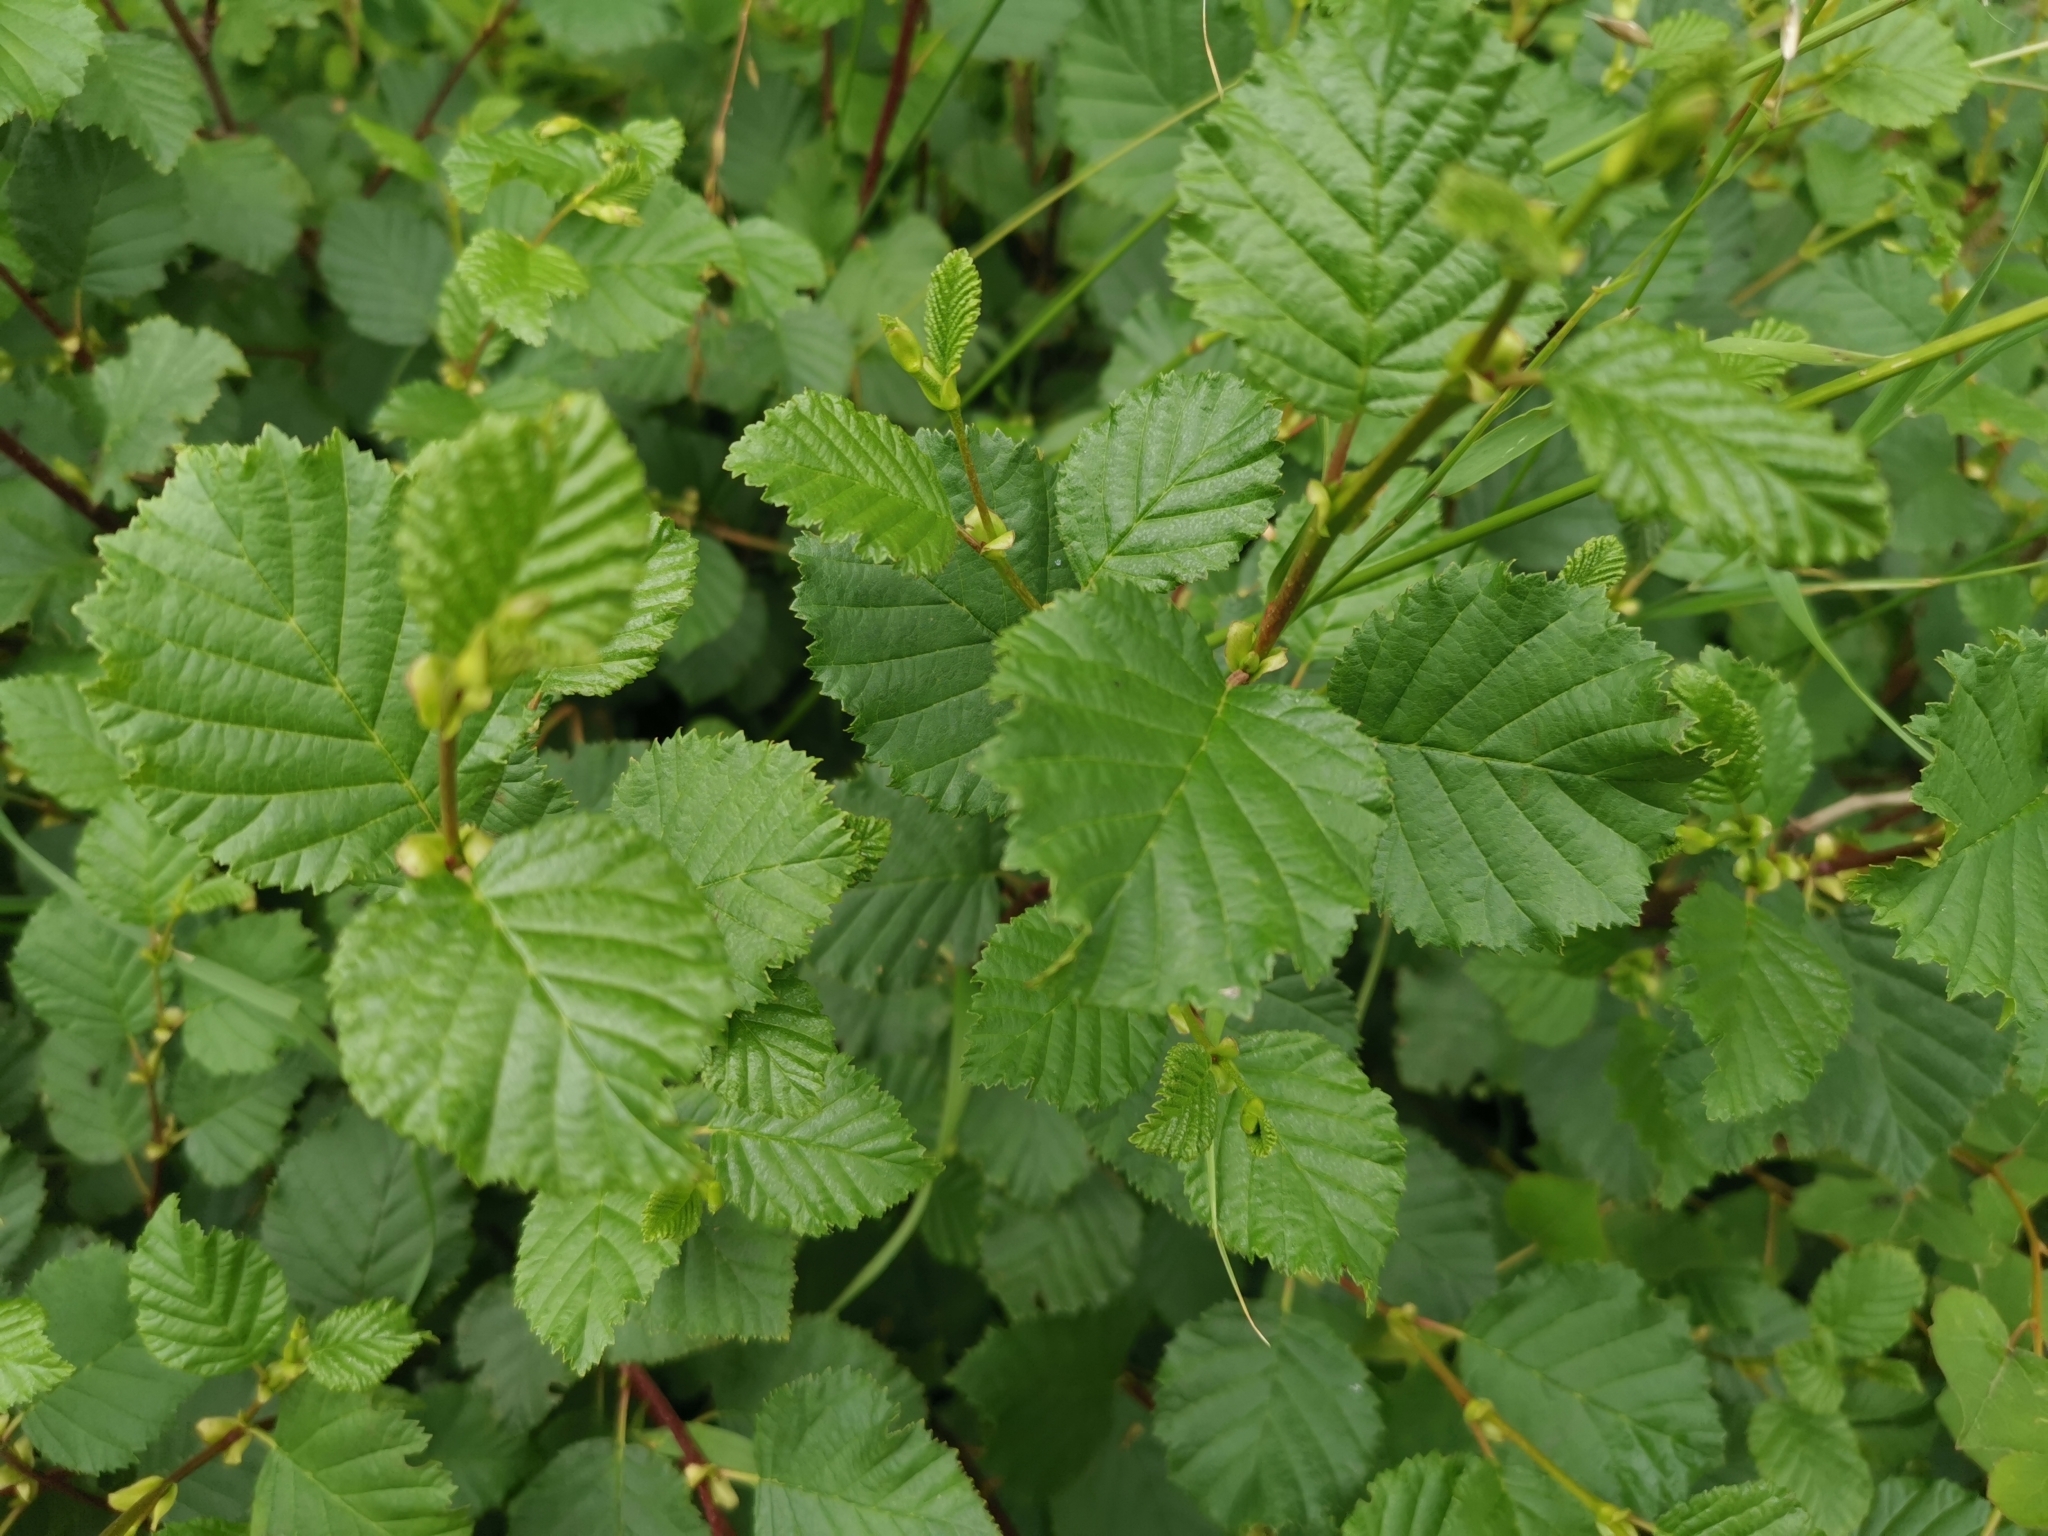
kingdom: Plantae
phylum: Tracheophyta
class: Magnoliopsida
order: Fagales
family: Betulaceae
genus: Alnus
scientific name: Alnus incana
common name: Grey alder
